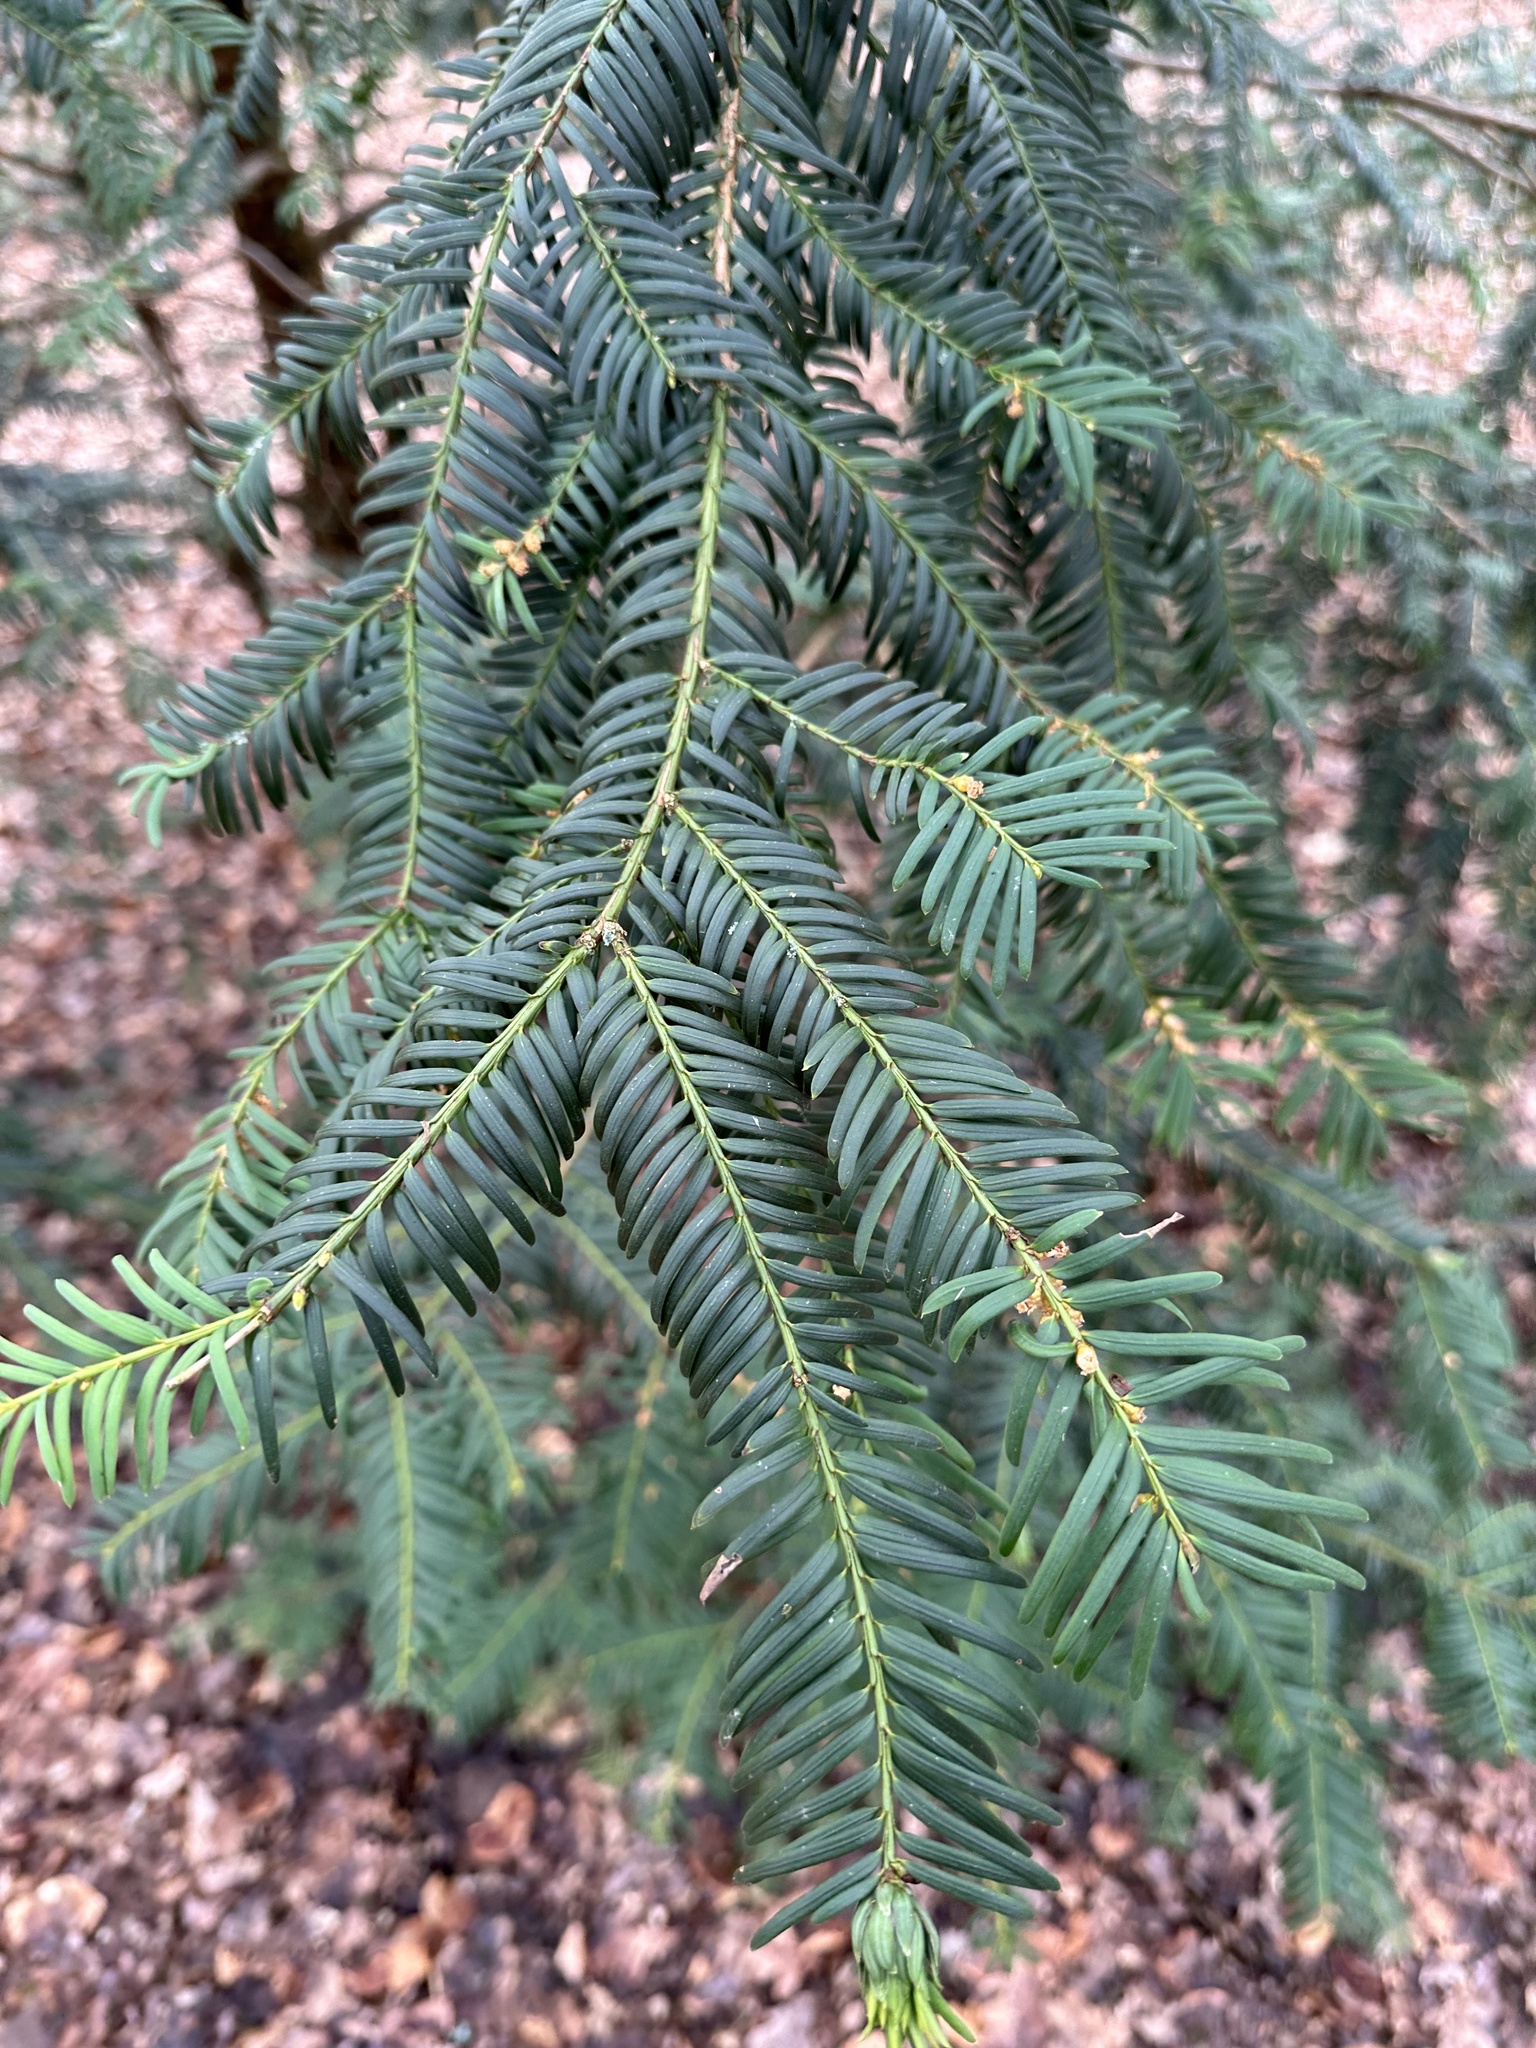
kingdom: Plantae
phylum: Tracheophyta
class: Pinopsida
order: Pinales
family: Taxaceae
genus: Taxus
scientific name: Taxus baccata
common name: Yew
